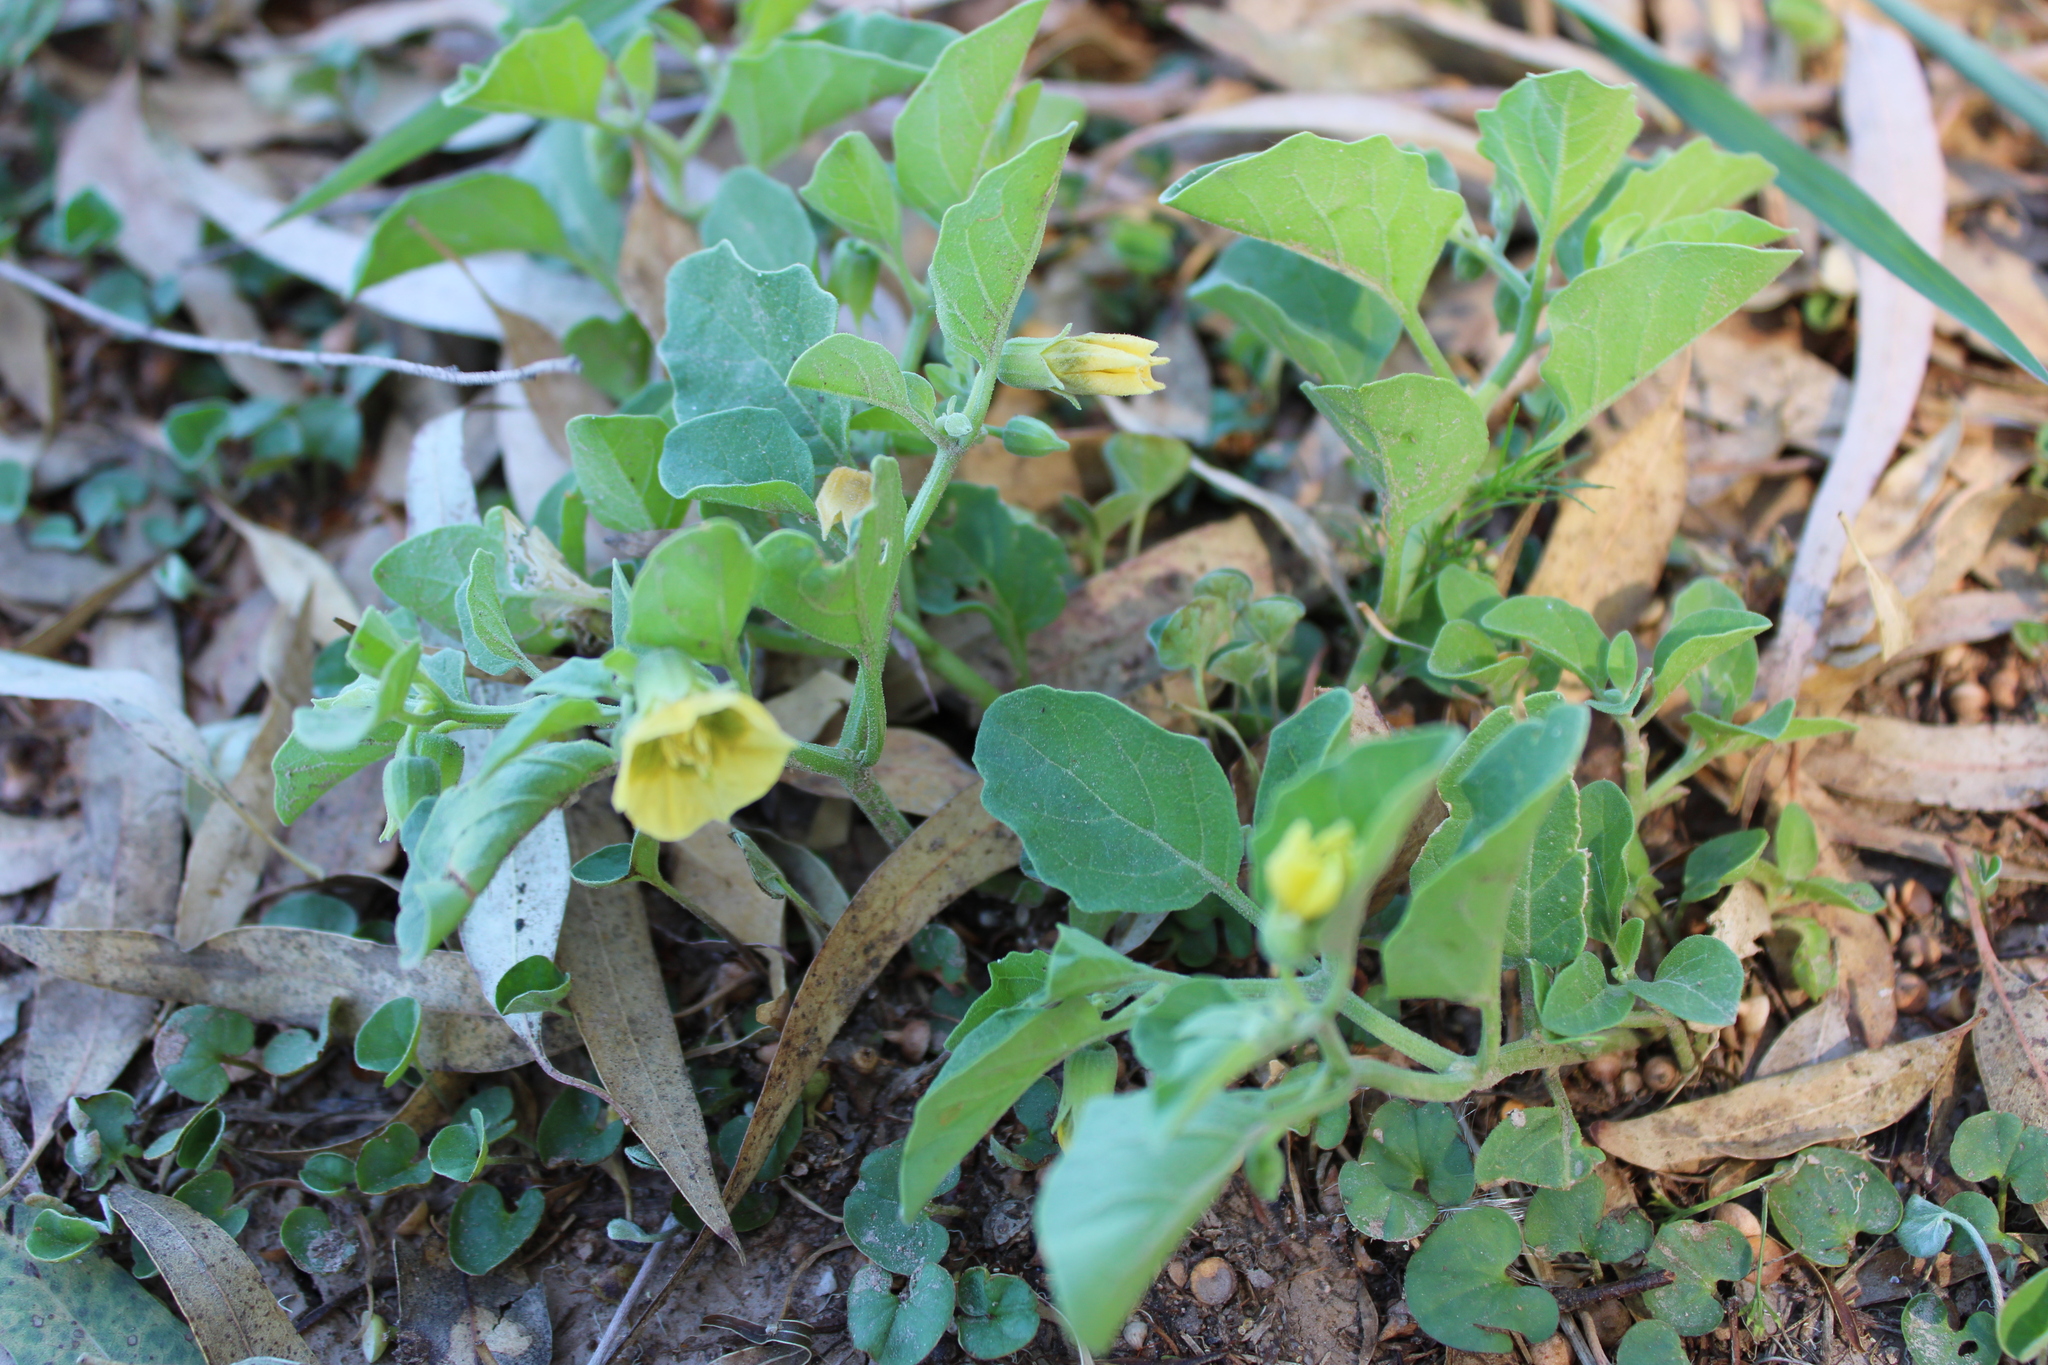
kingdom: Plantae
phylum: Tracheophyta
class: Magnoliopsida
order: Solanales
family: Solanaceae
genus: Physalis
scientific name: Physalis viscosa
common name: Stellate ground-cherry
